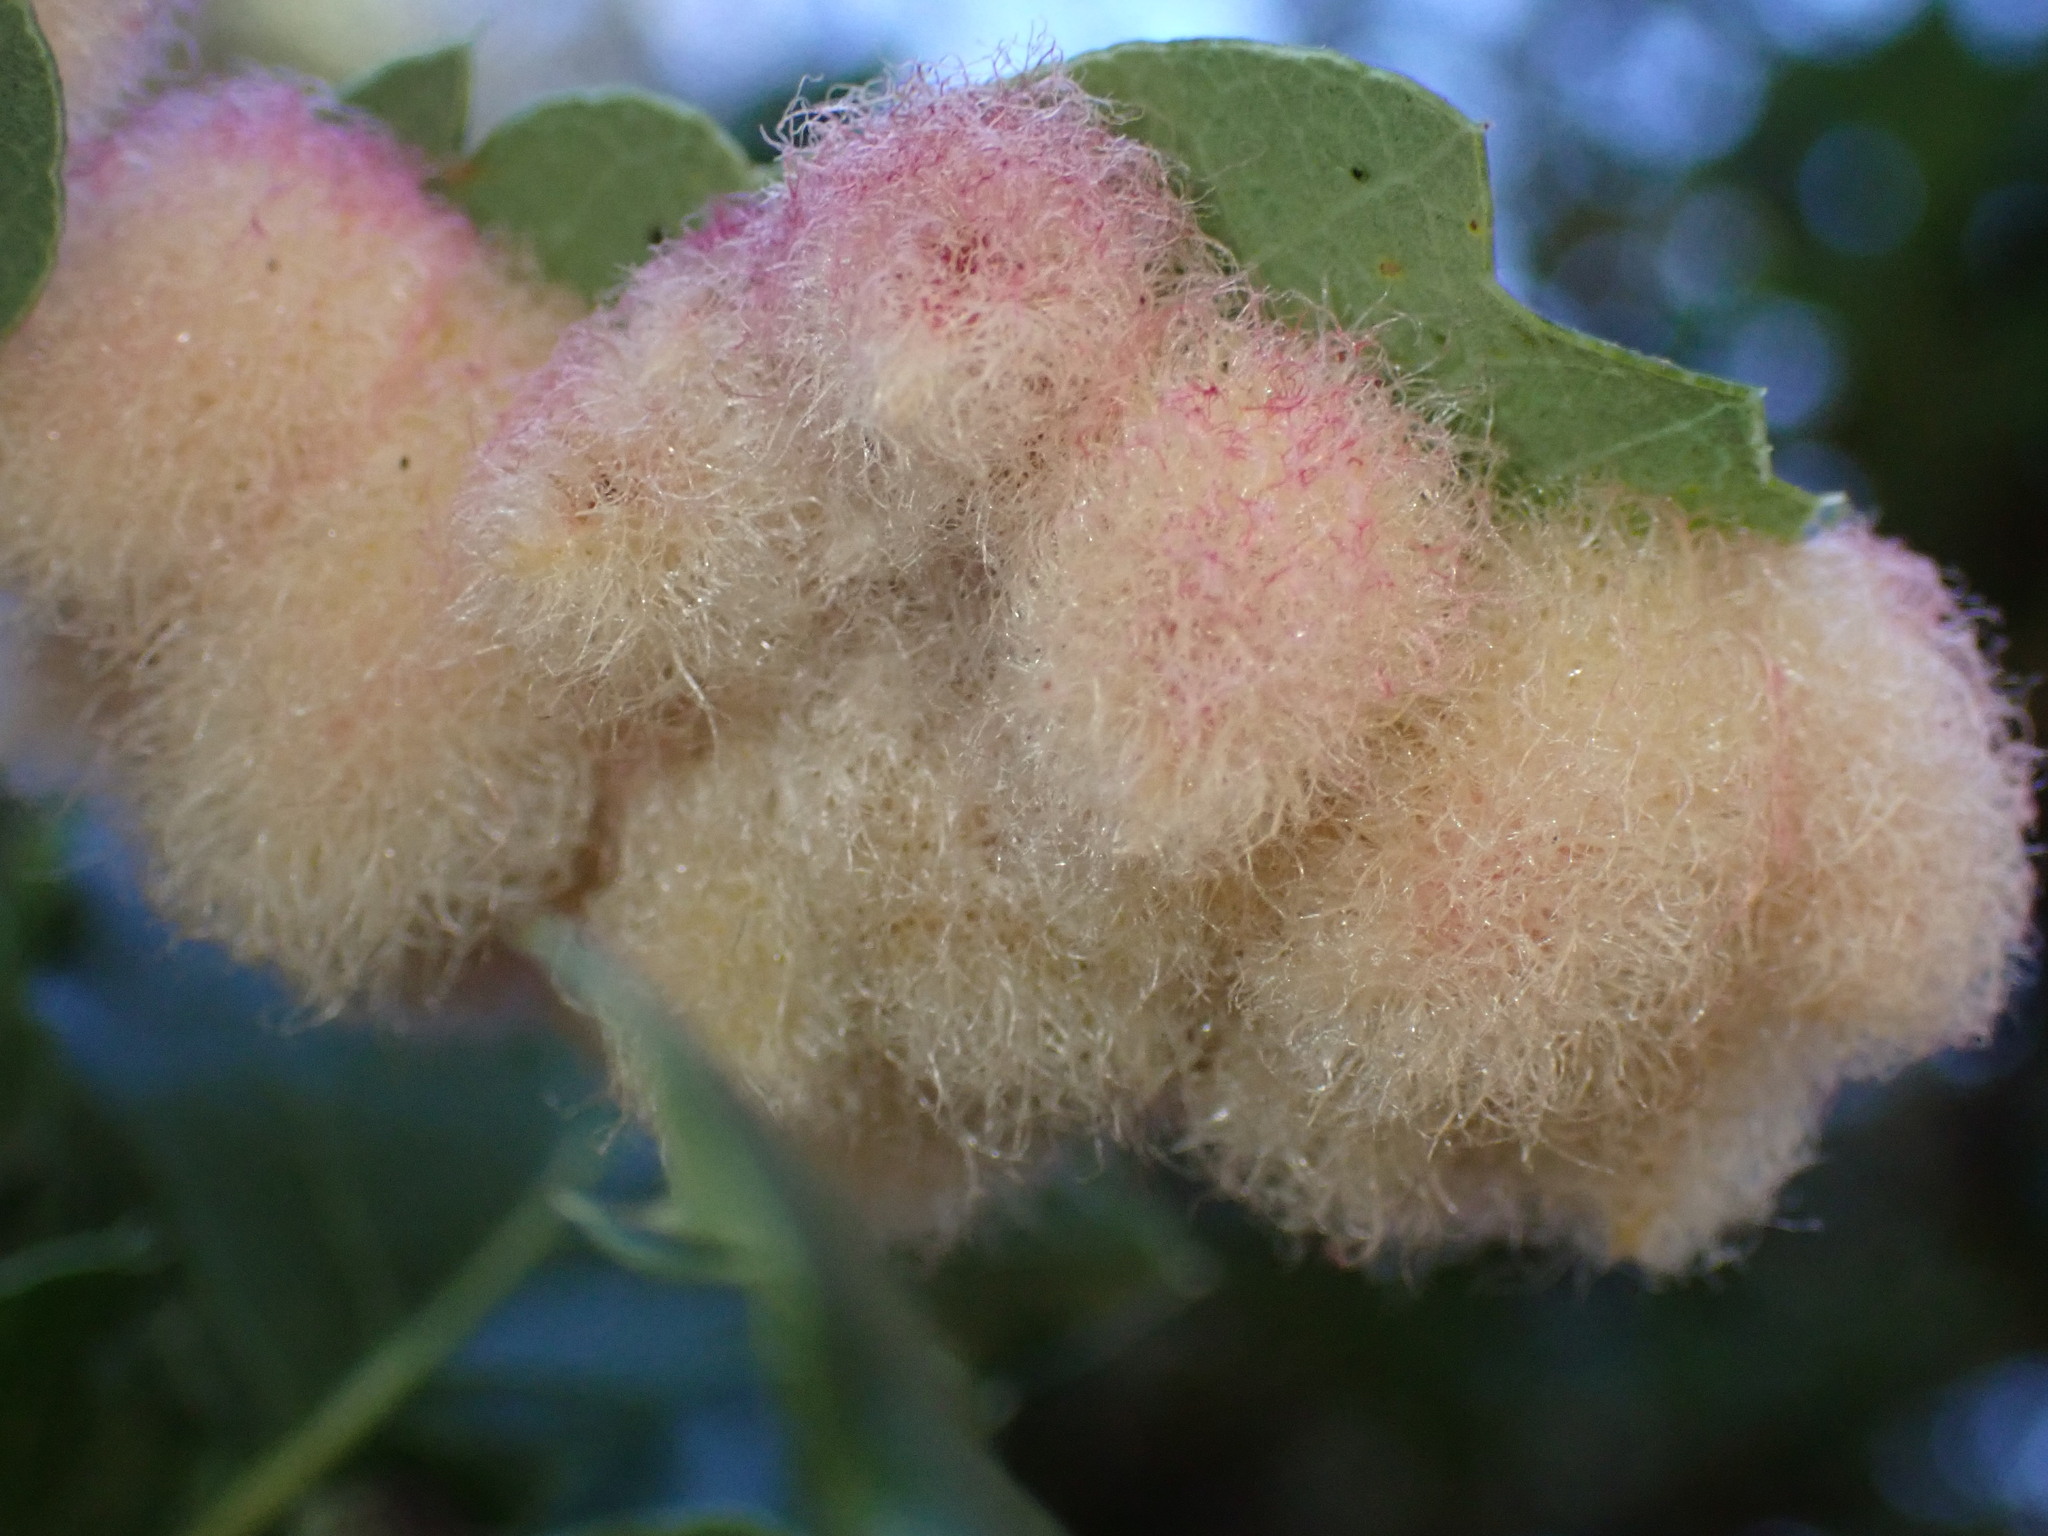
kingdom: Animalia
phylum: Arthropoda
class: Insecta
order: Hymenoptera
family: Cynipidae
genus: Andricus
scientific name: Andricus
